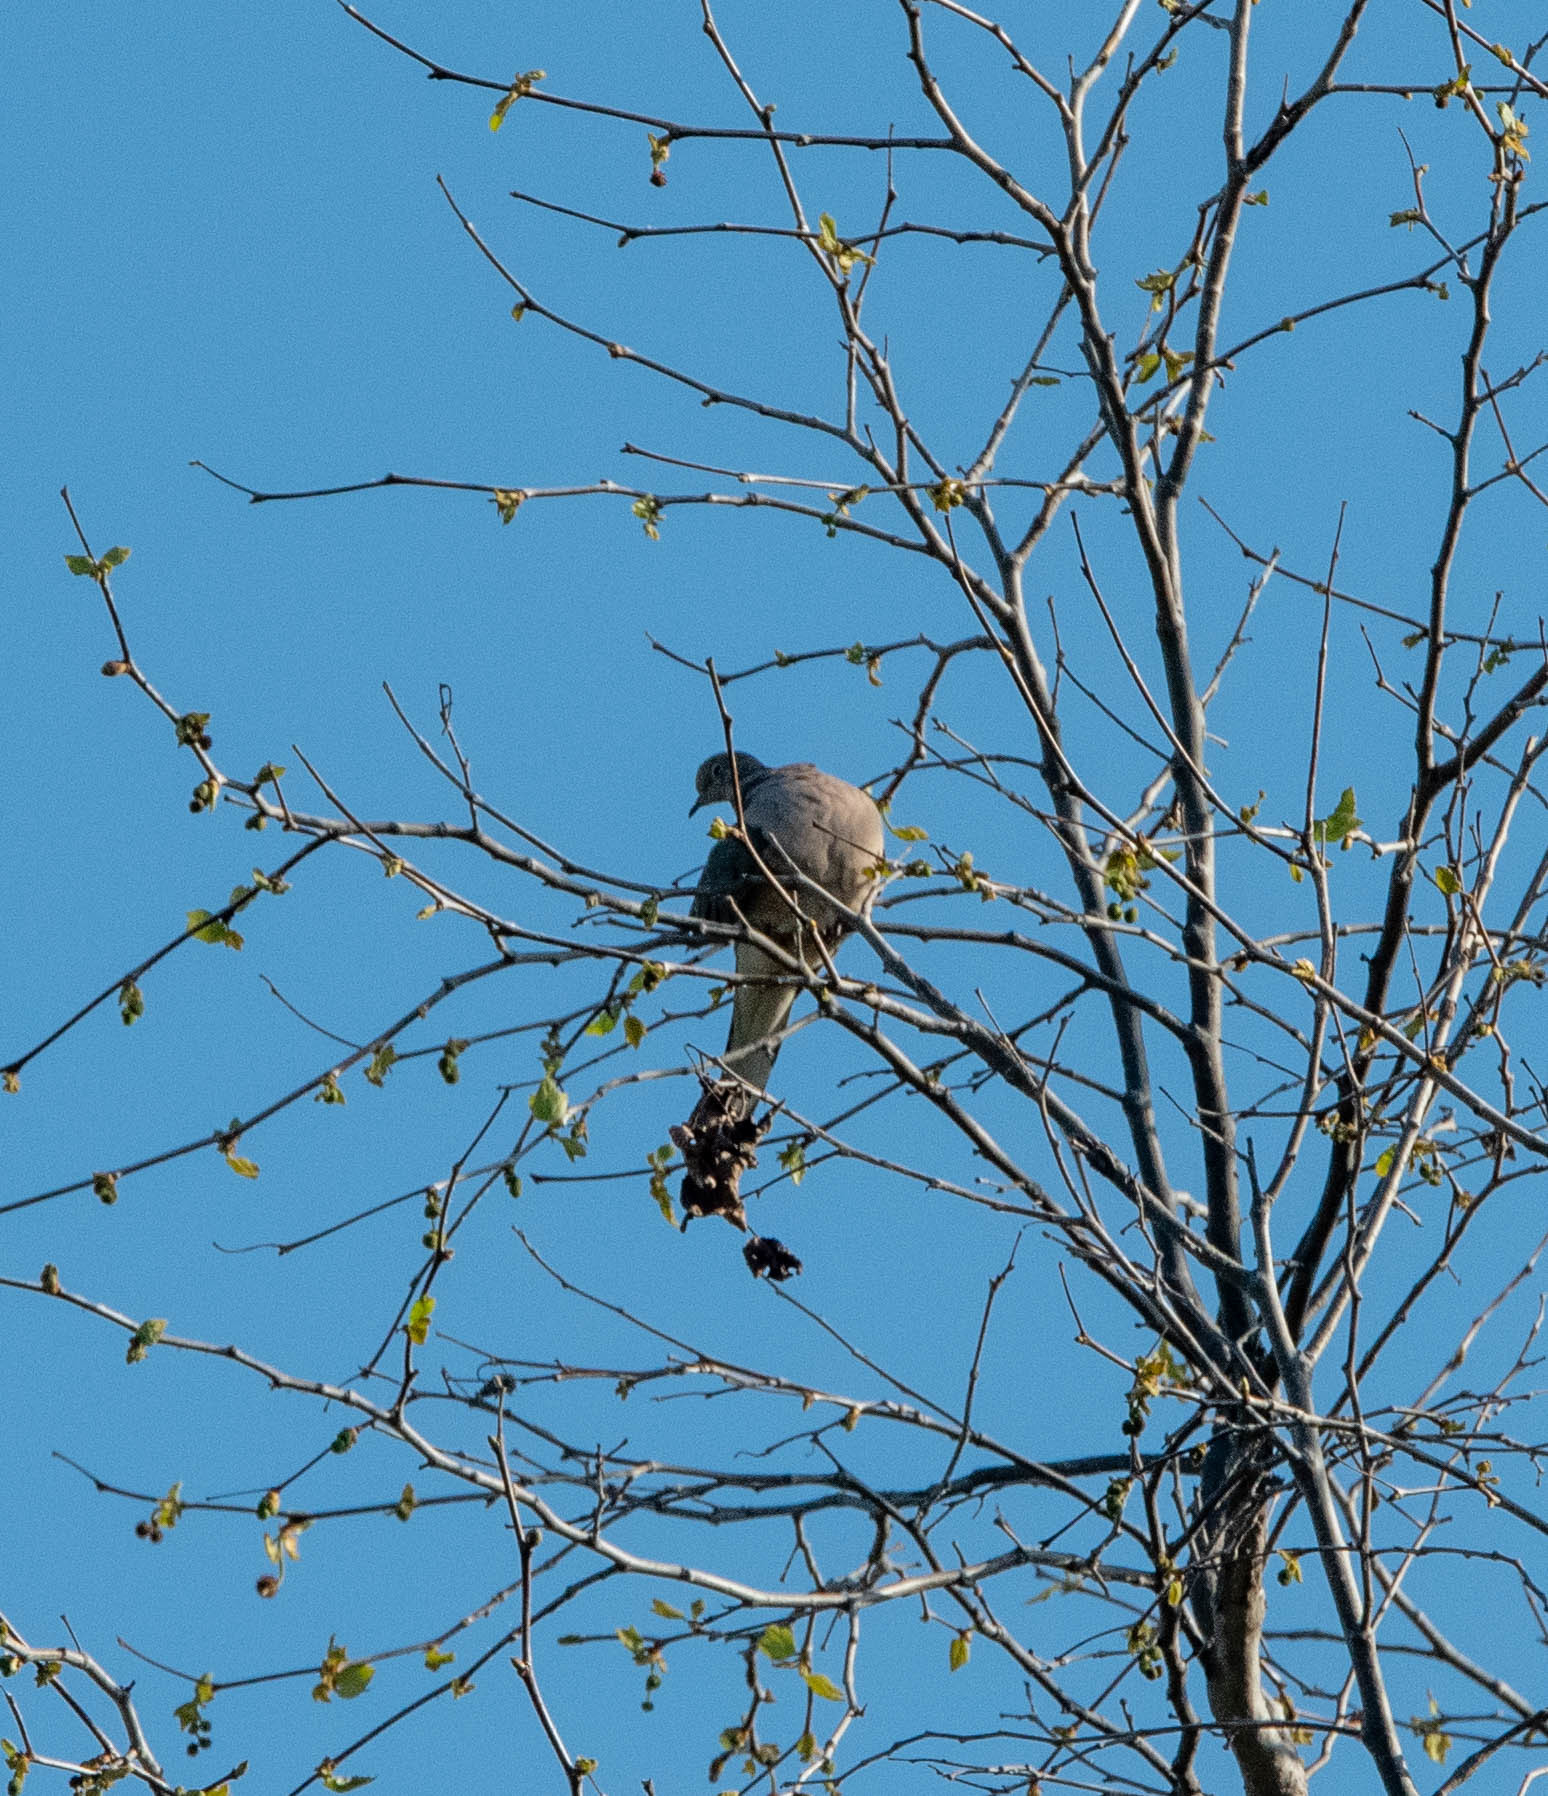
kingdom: Animalia
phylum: Chordata
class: Aves
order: Columbiformes
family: Columbidae
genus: Zenaida
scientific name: Zenaida macroura
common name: Mourning dove
